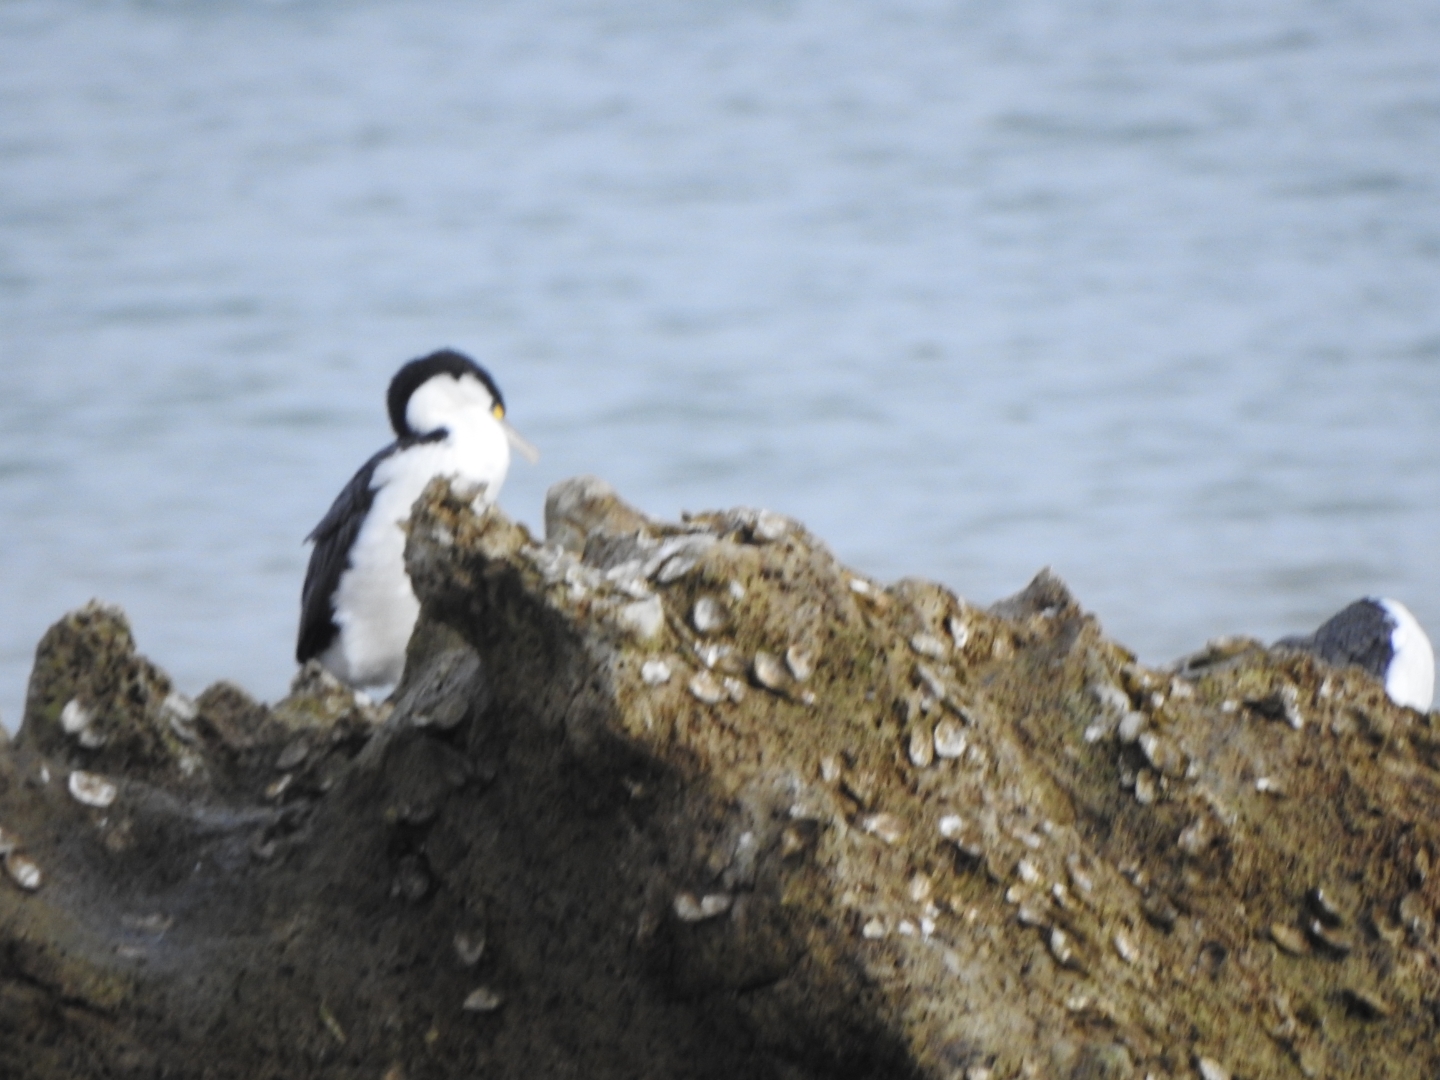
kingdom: Animalia
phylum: Chordata
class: Aves
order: Suliformes
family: Phalacrocoracidae
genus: Phalacrocorax
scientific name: Phalacrocorax varius
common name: Pied cormorant
